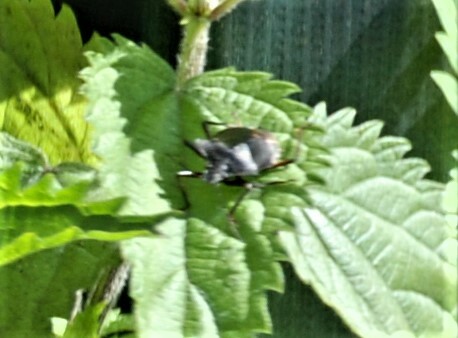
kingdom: Animalia
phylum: Arthropoda
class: Insecta
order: Hemiptera
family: Pentatomidae
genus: Pentatoma
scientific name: Pentatoma rufipes
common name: Forest bug
